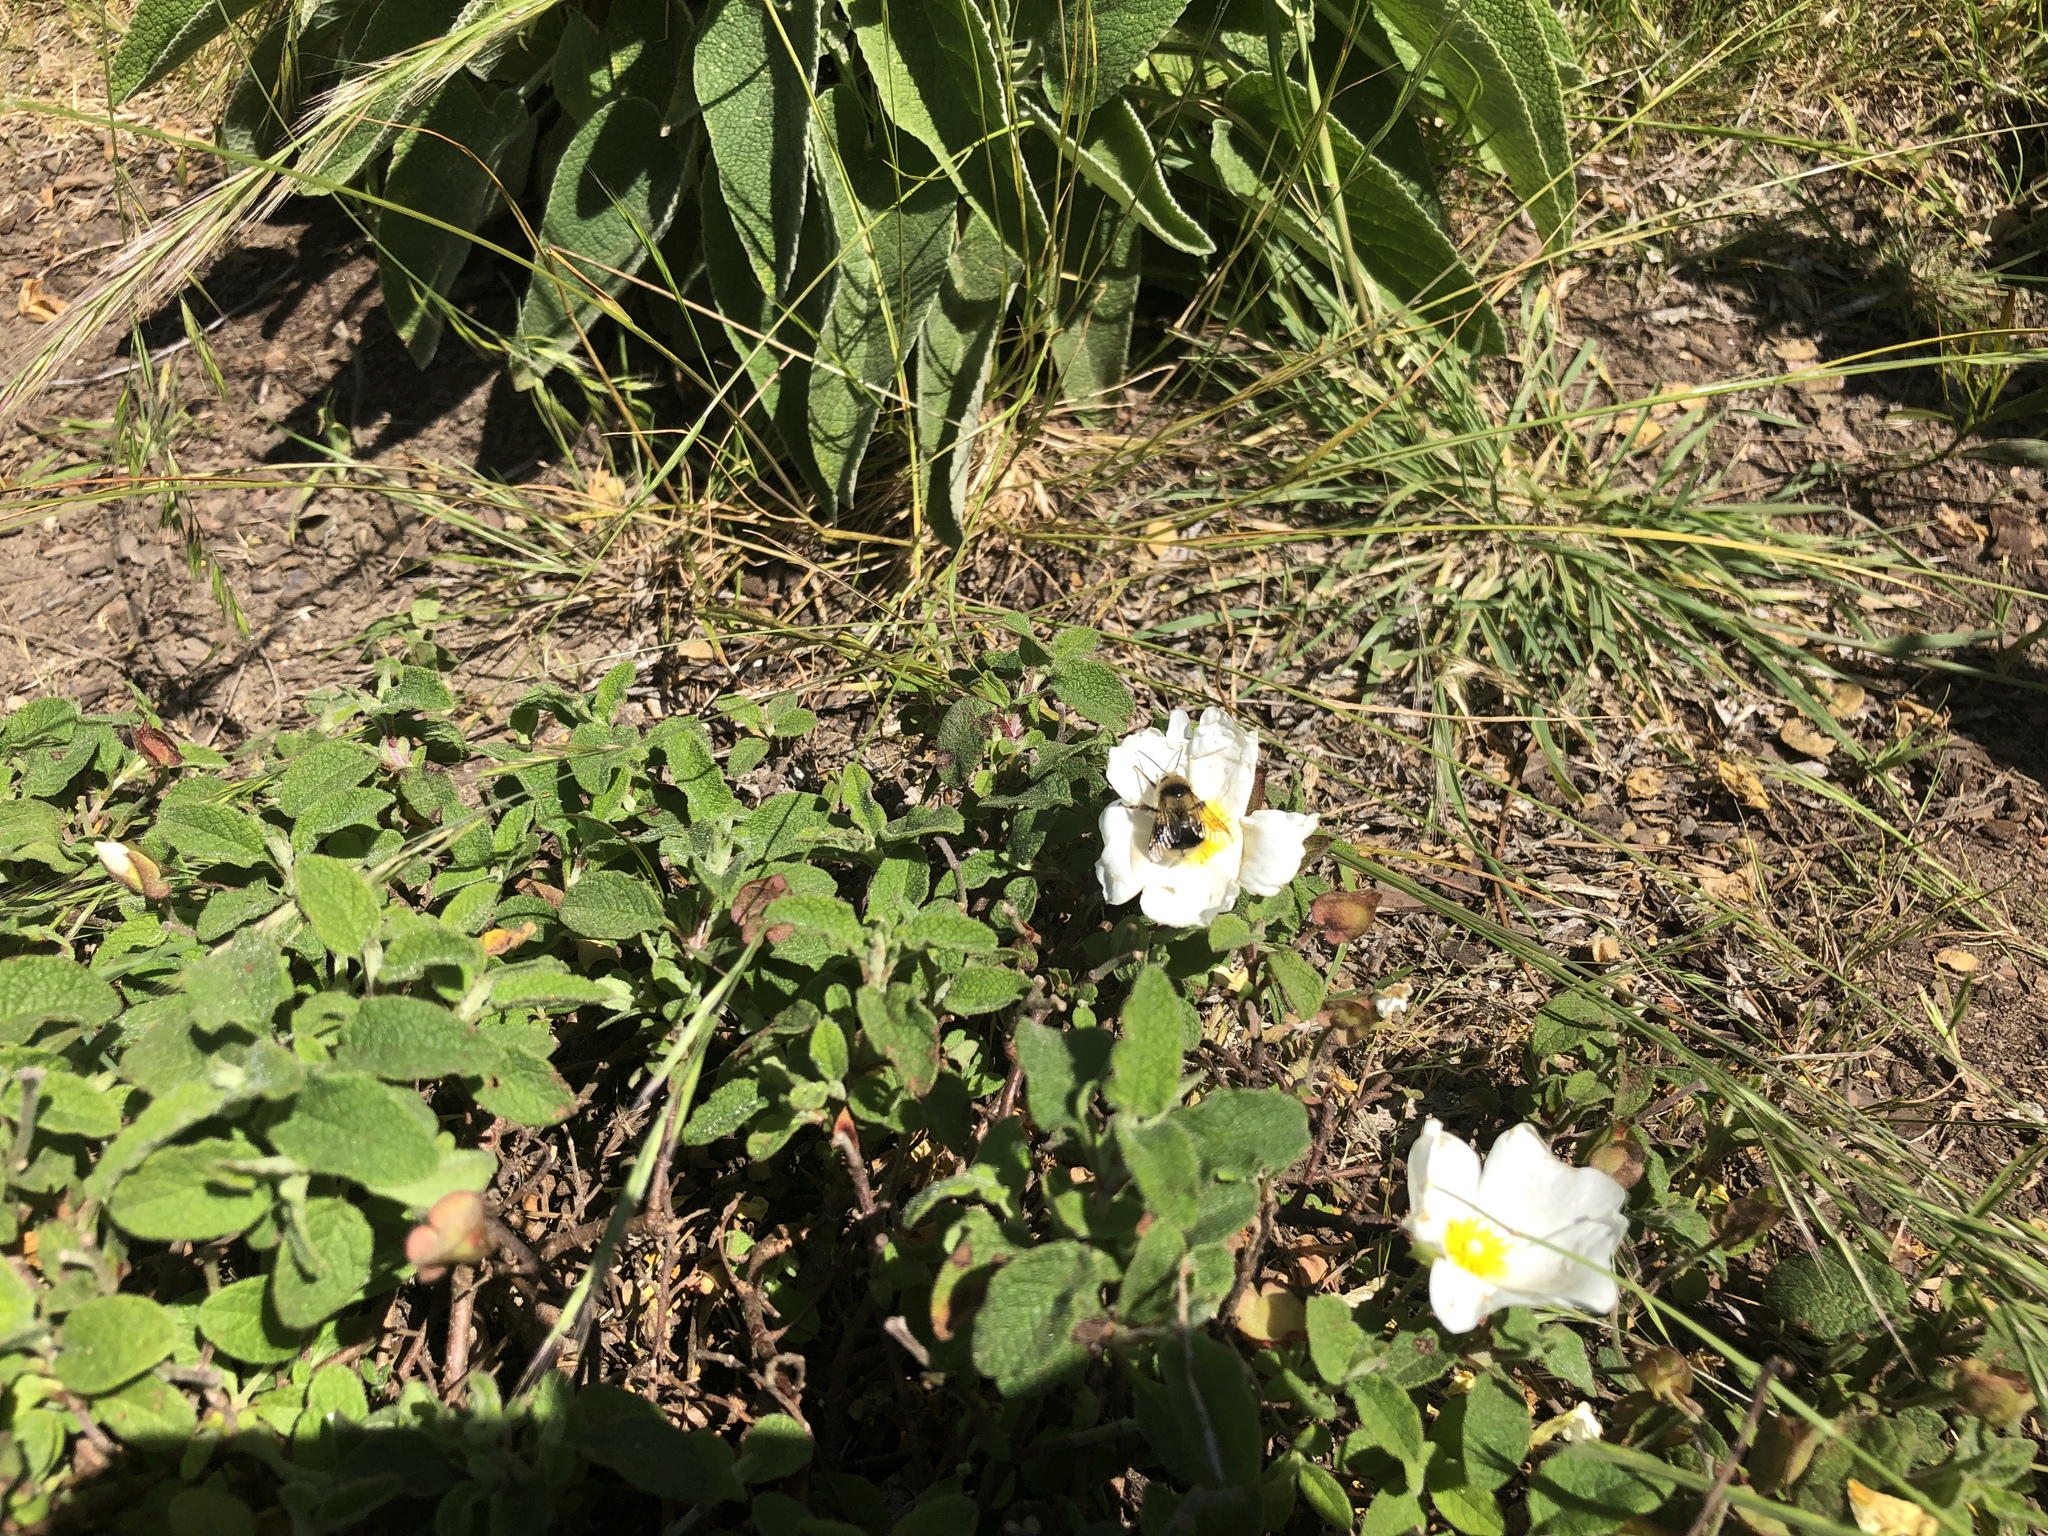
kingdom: Animalia
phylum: Arthropoda
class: Insecta
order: Hymenoptera
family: Apidae
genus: Bombus
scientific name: Bombus melanopygus
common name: Black tail bumble bee
